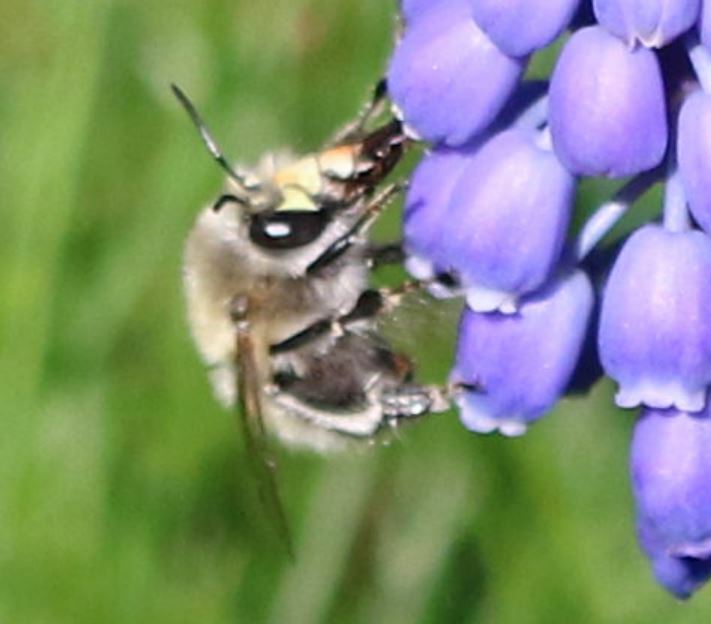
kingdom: Animalia
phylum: Arthropoda
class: Insecta
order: Hymenoptera
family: Apidae
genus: Anthophora
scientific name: Anthophora plumipes
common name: Hairy-footed flower bee
